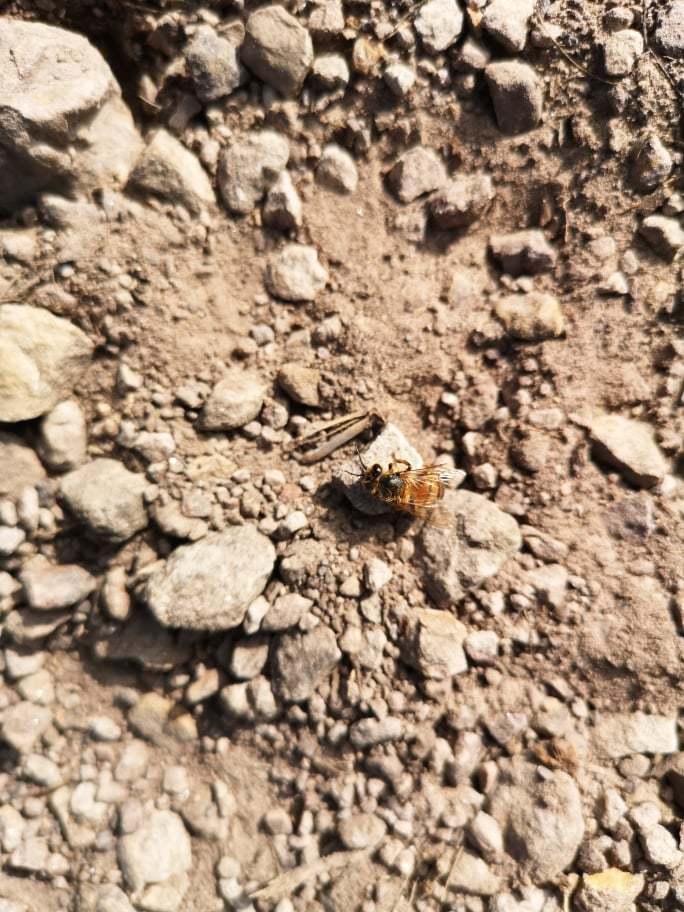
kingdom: Animalia
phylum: Arthropoda
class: Insecta
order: Hymenoptera
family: Apidae
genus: Apis
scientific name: Apis mellifera
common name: Honey bee
